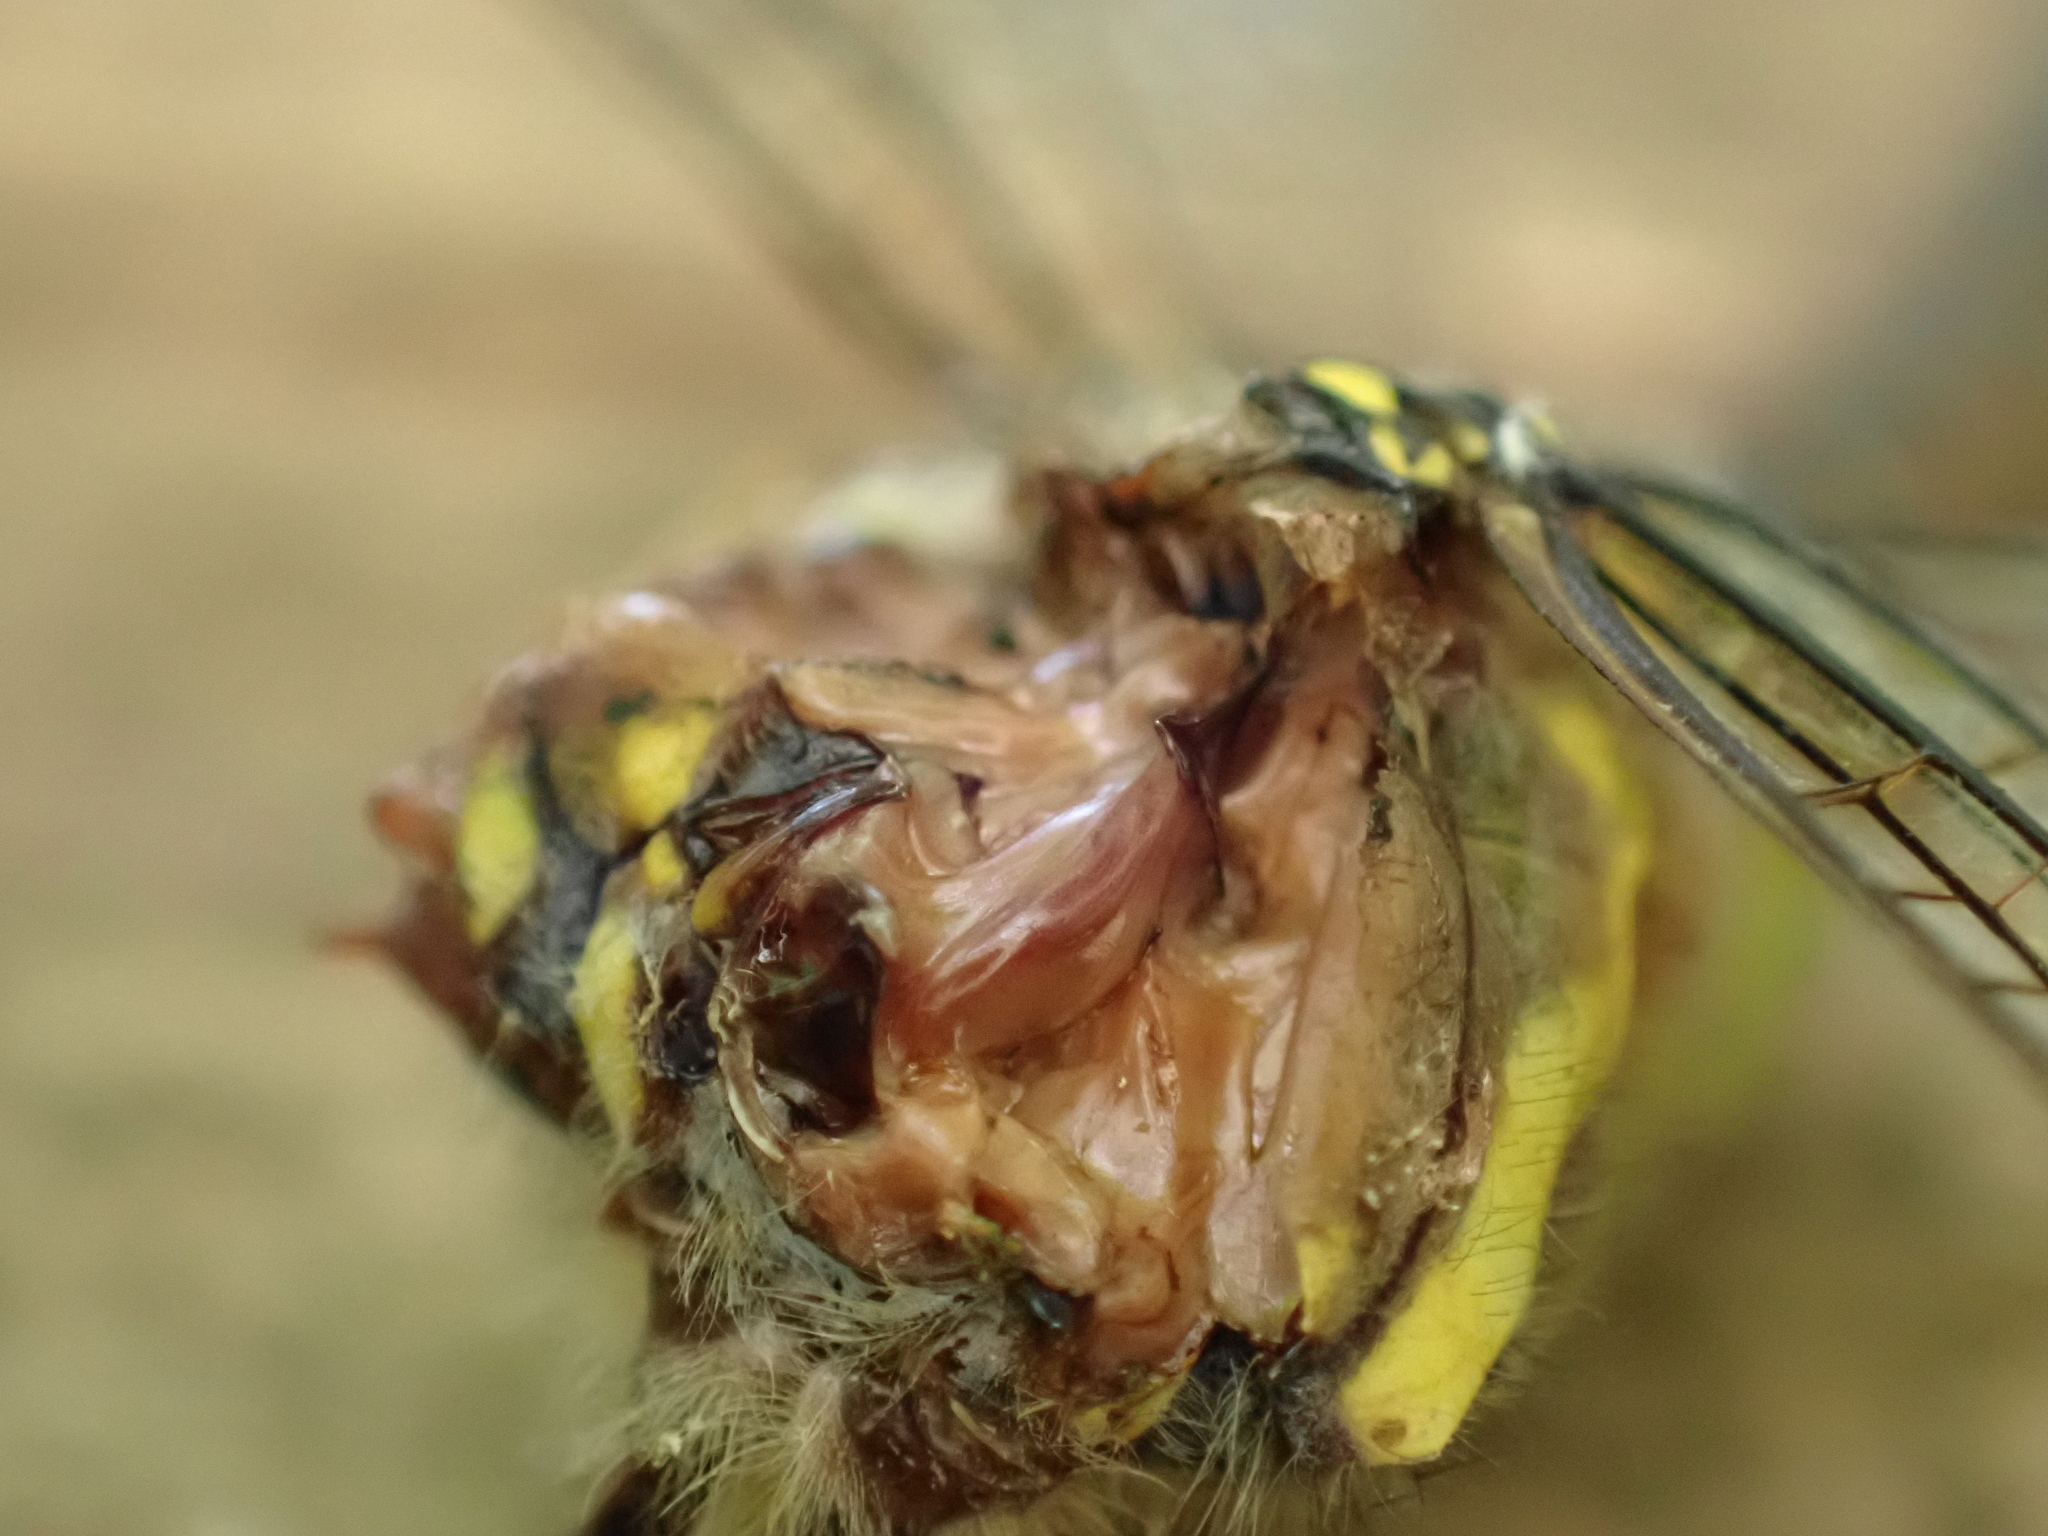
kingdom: Animalia
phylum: Arthropoda
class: Insecta
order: Odonata
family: Aeshnidae
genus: Aeshna
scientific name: Aeshna mixta
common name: Migrant hawker
